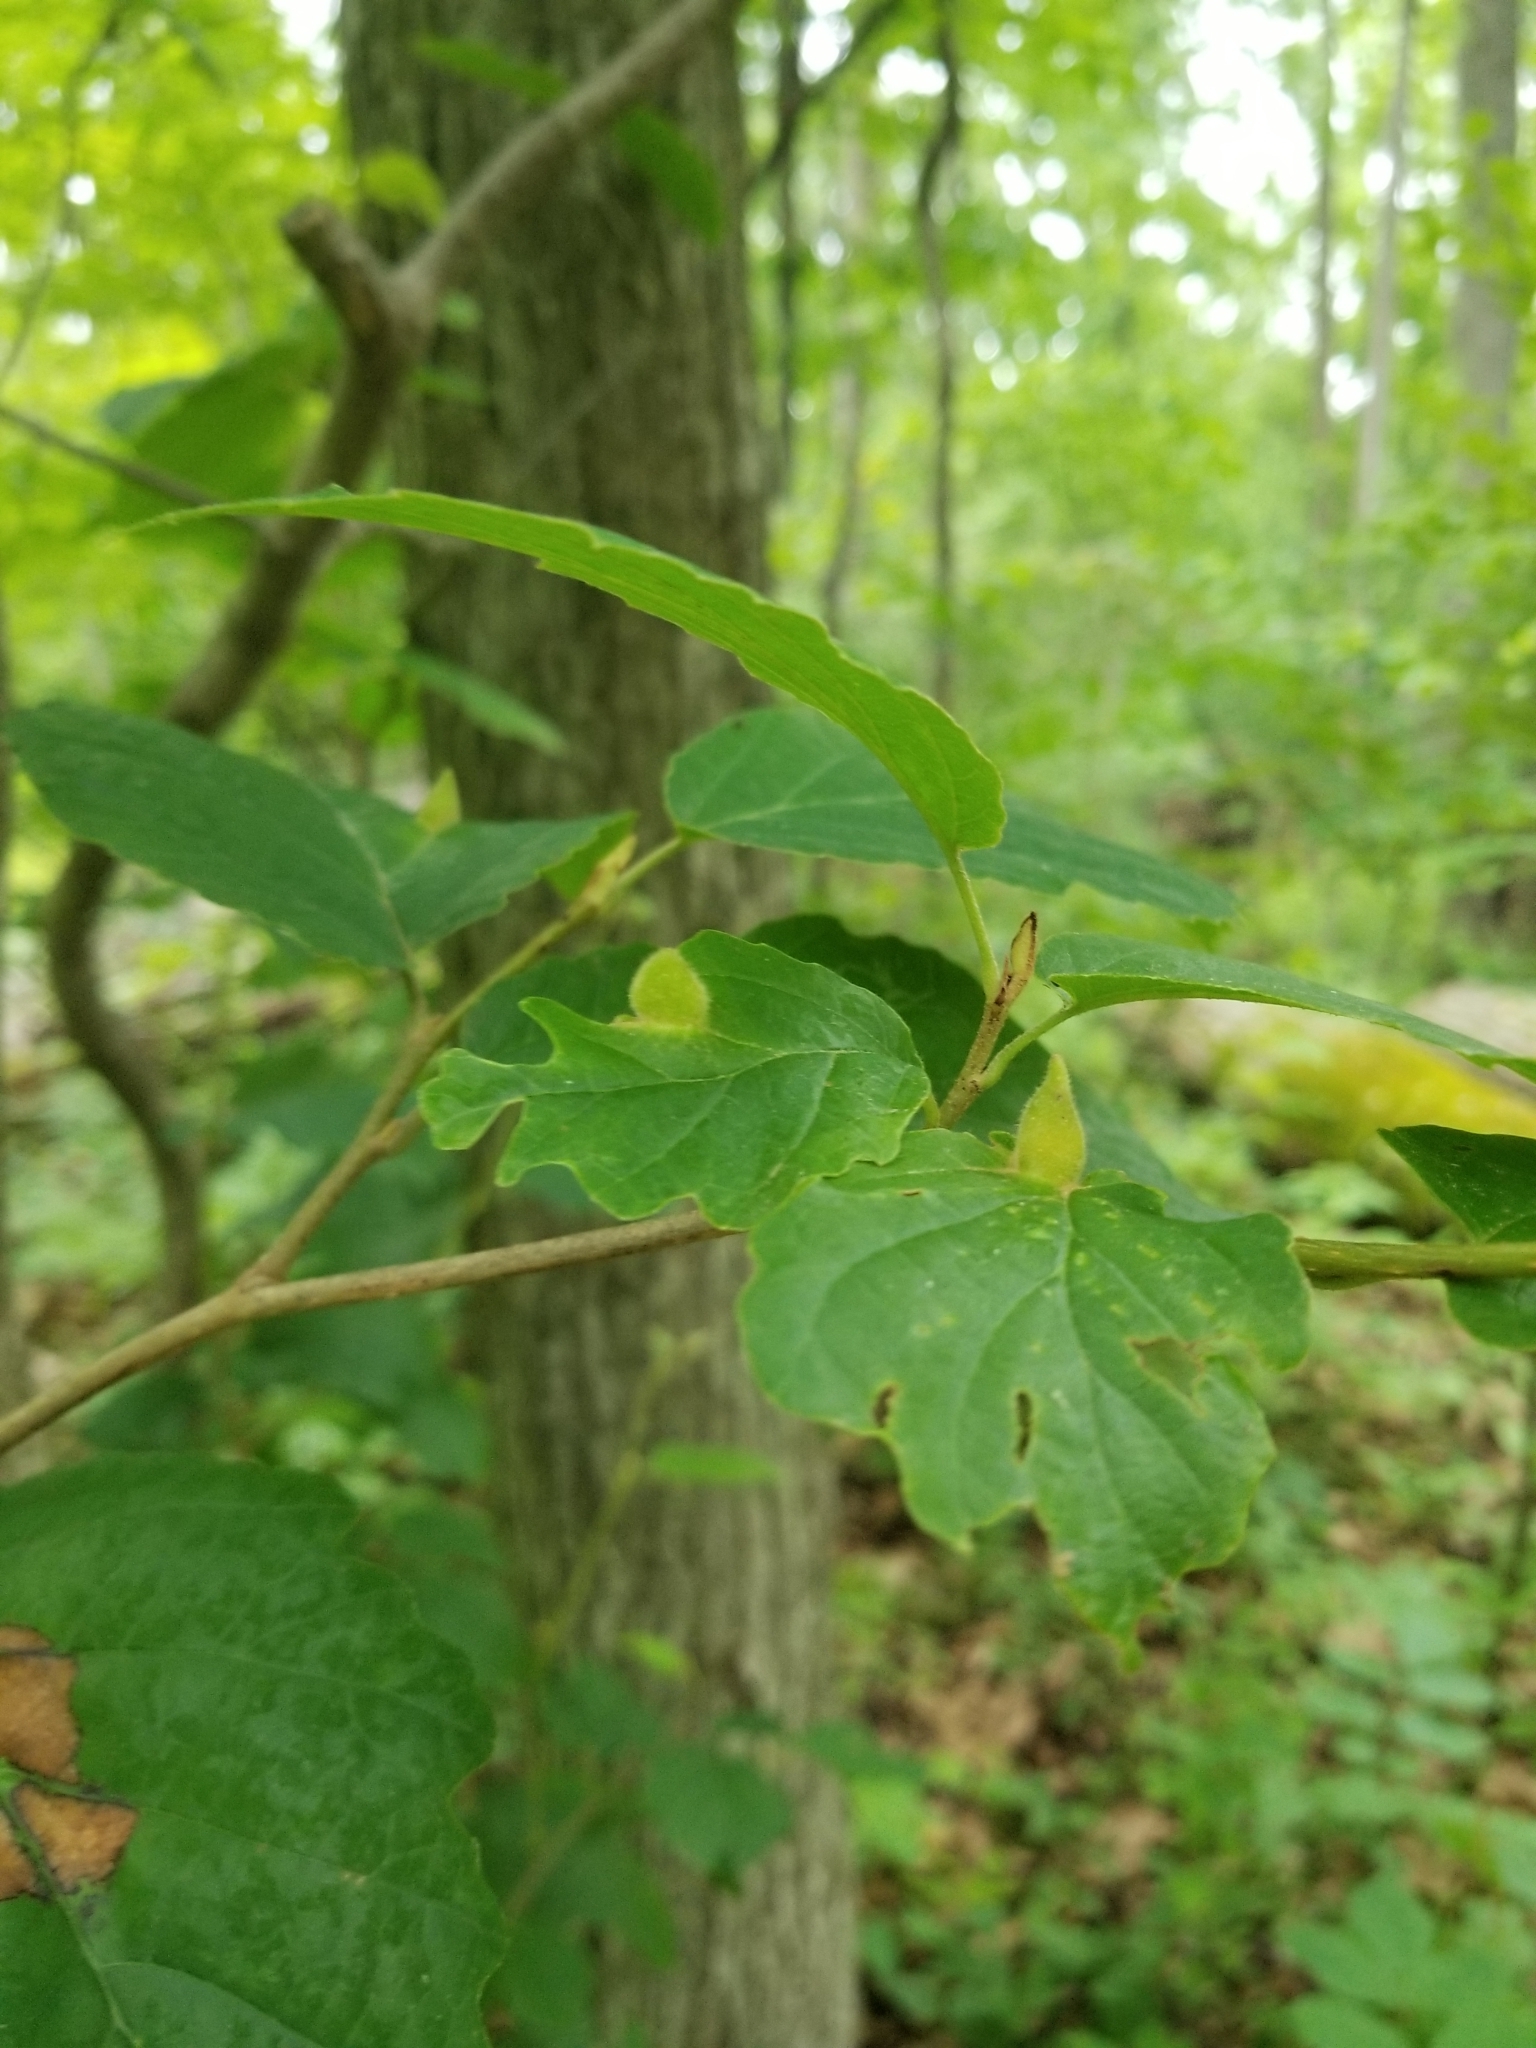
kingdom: Animalia
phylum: Arthropoda
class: Insecta
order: Hemiptera
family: Aphididae
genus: Hormaphis
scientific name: Hormaphis hamamelidis
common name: Witch-hazel cone gall aphid
